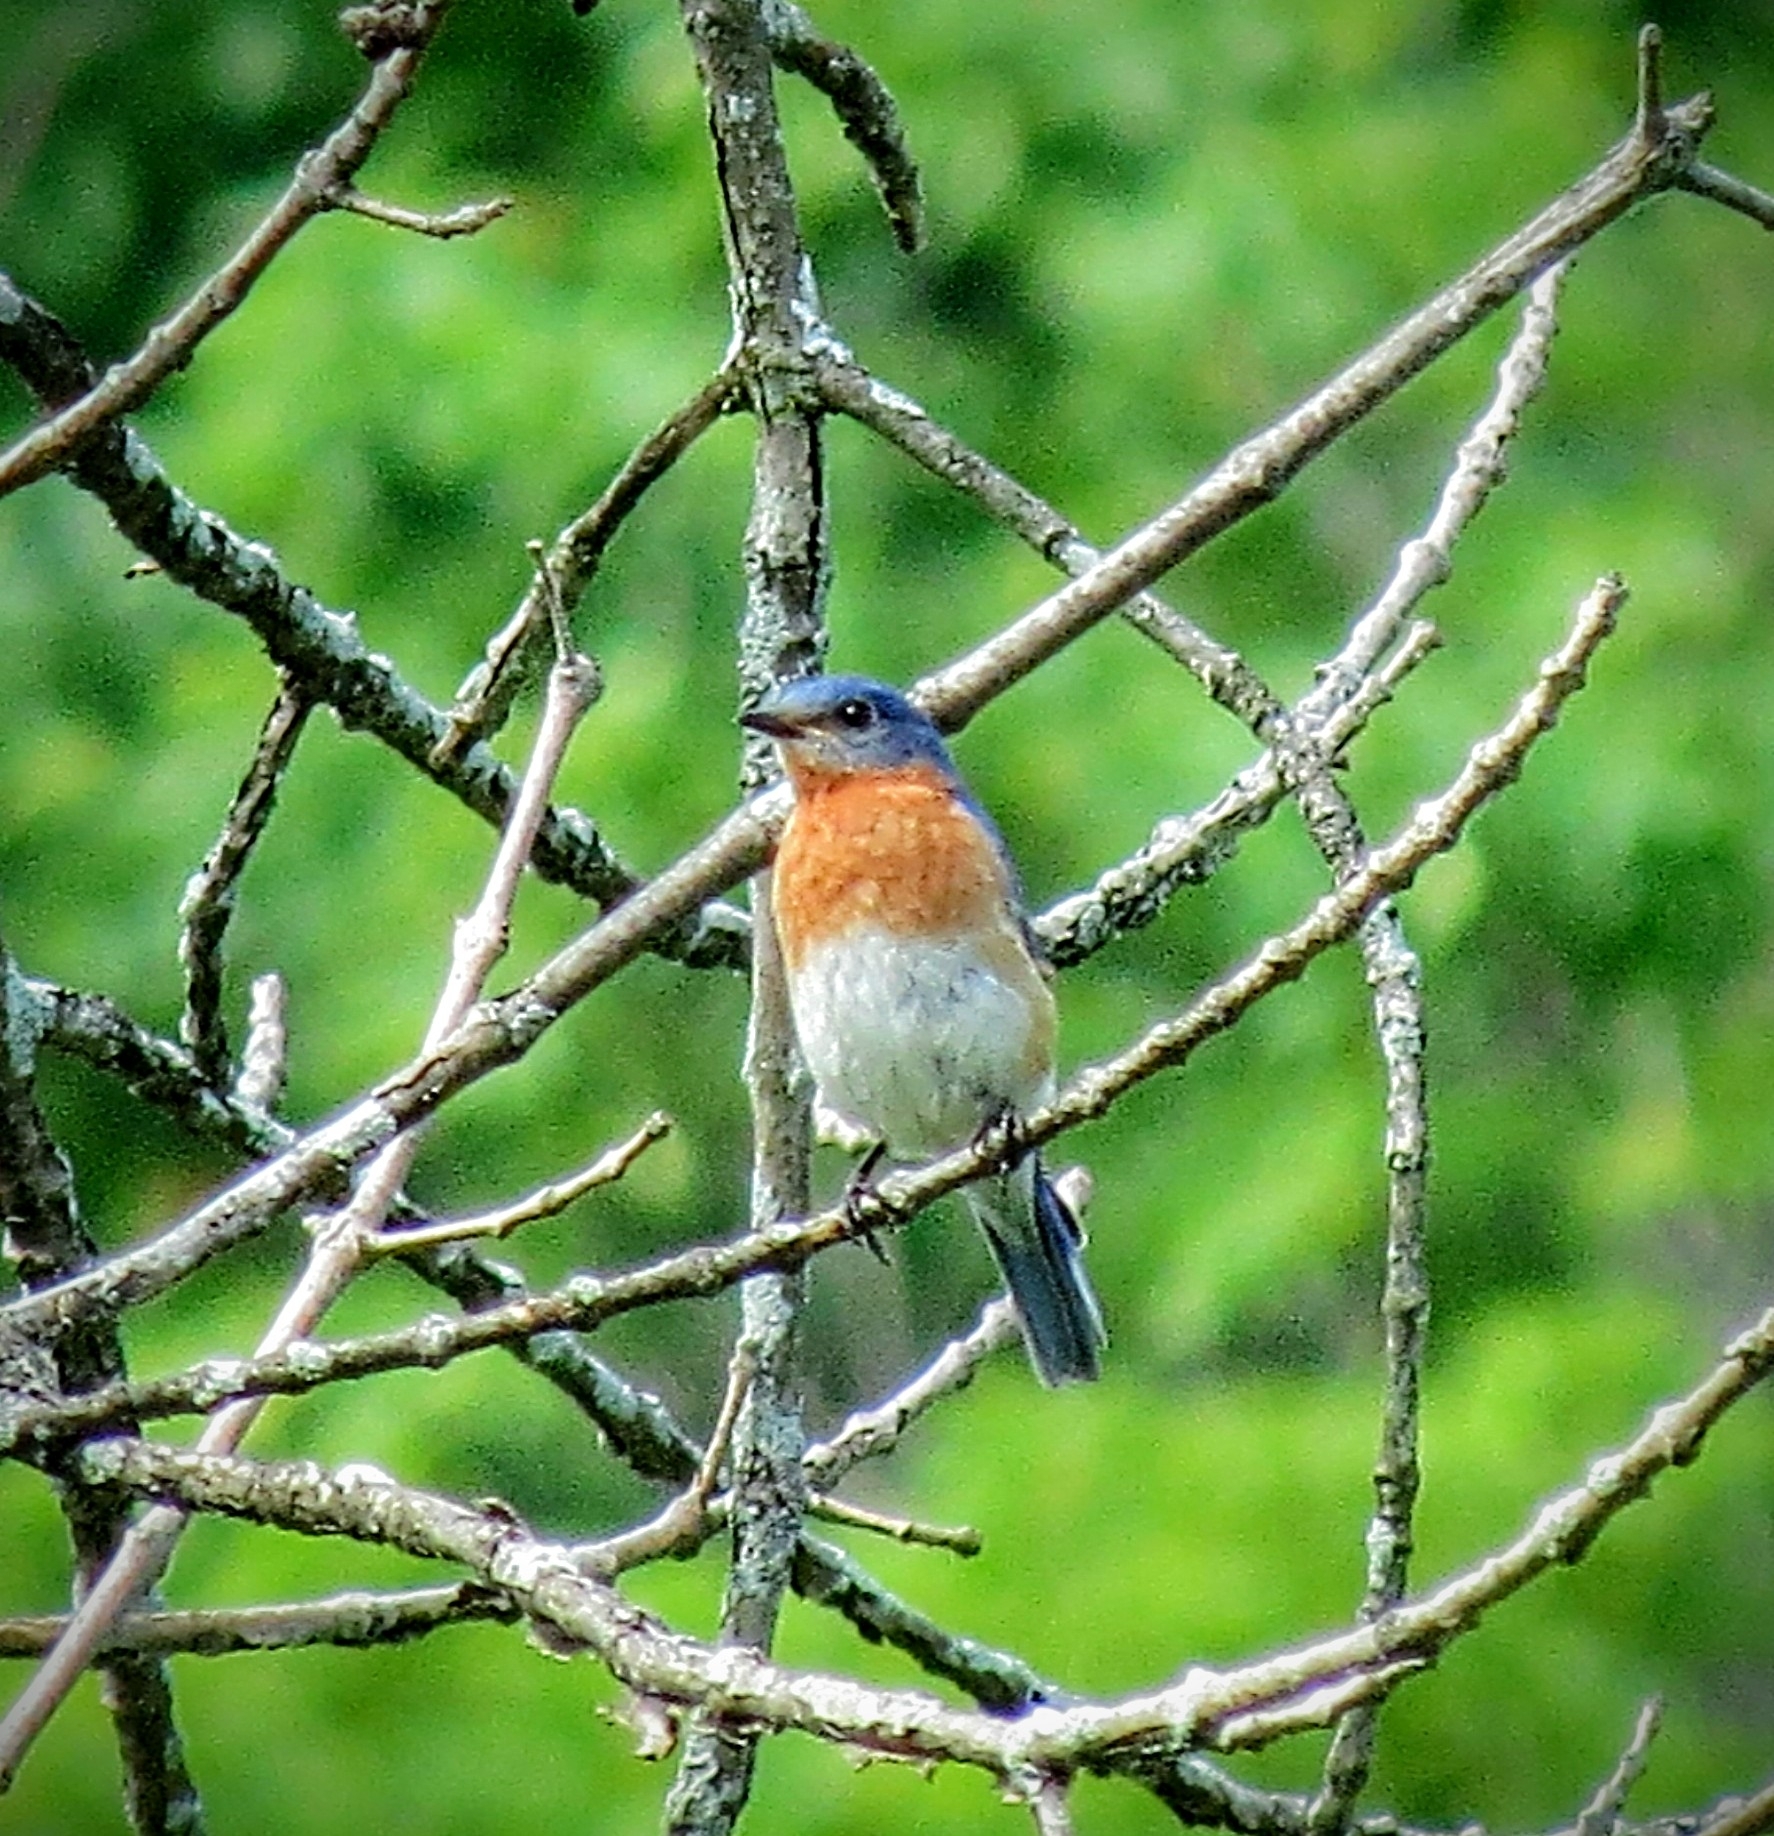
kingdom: Animalia
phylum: Chordata
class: Aves
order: Passeriformes
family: Turdidae
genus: Sialia
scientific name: Sialia sialis
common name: Eastern bluebird
